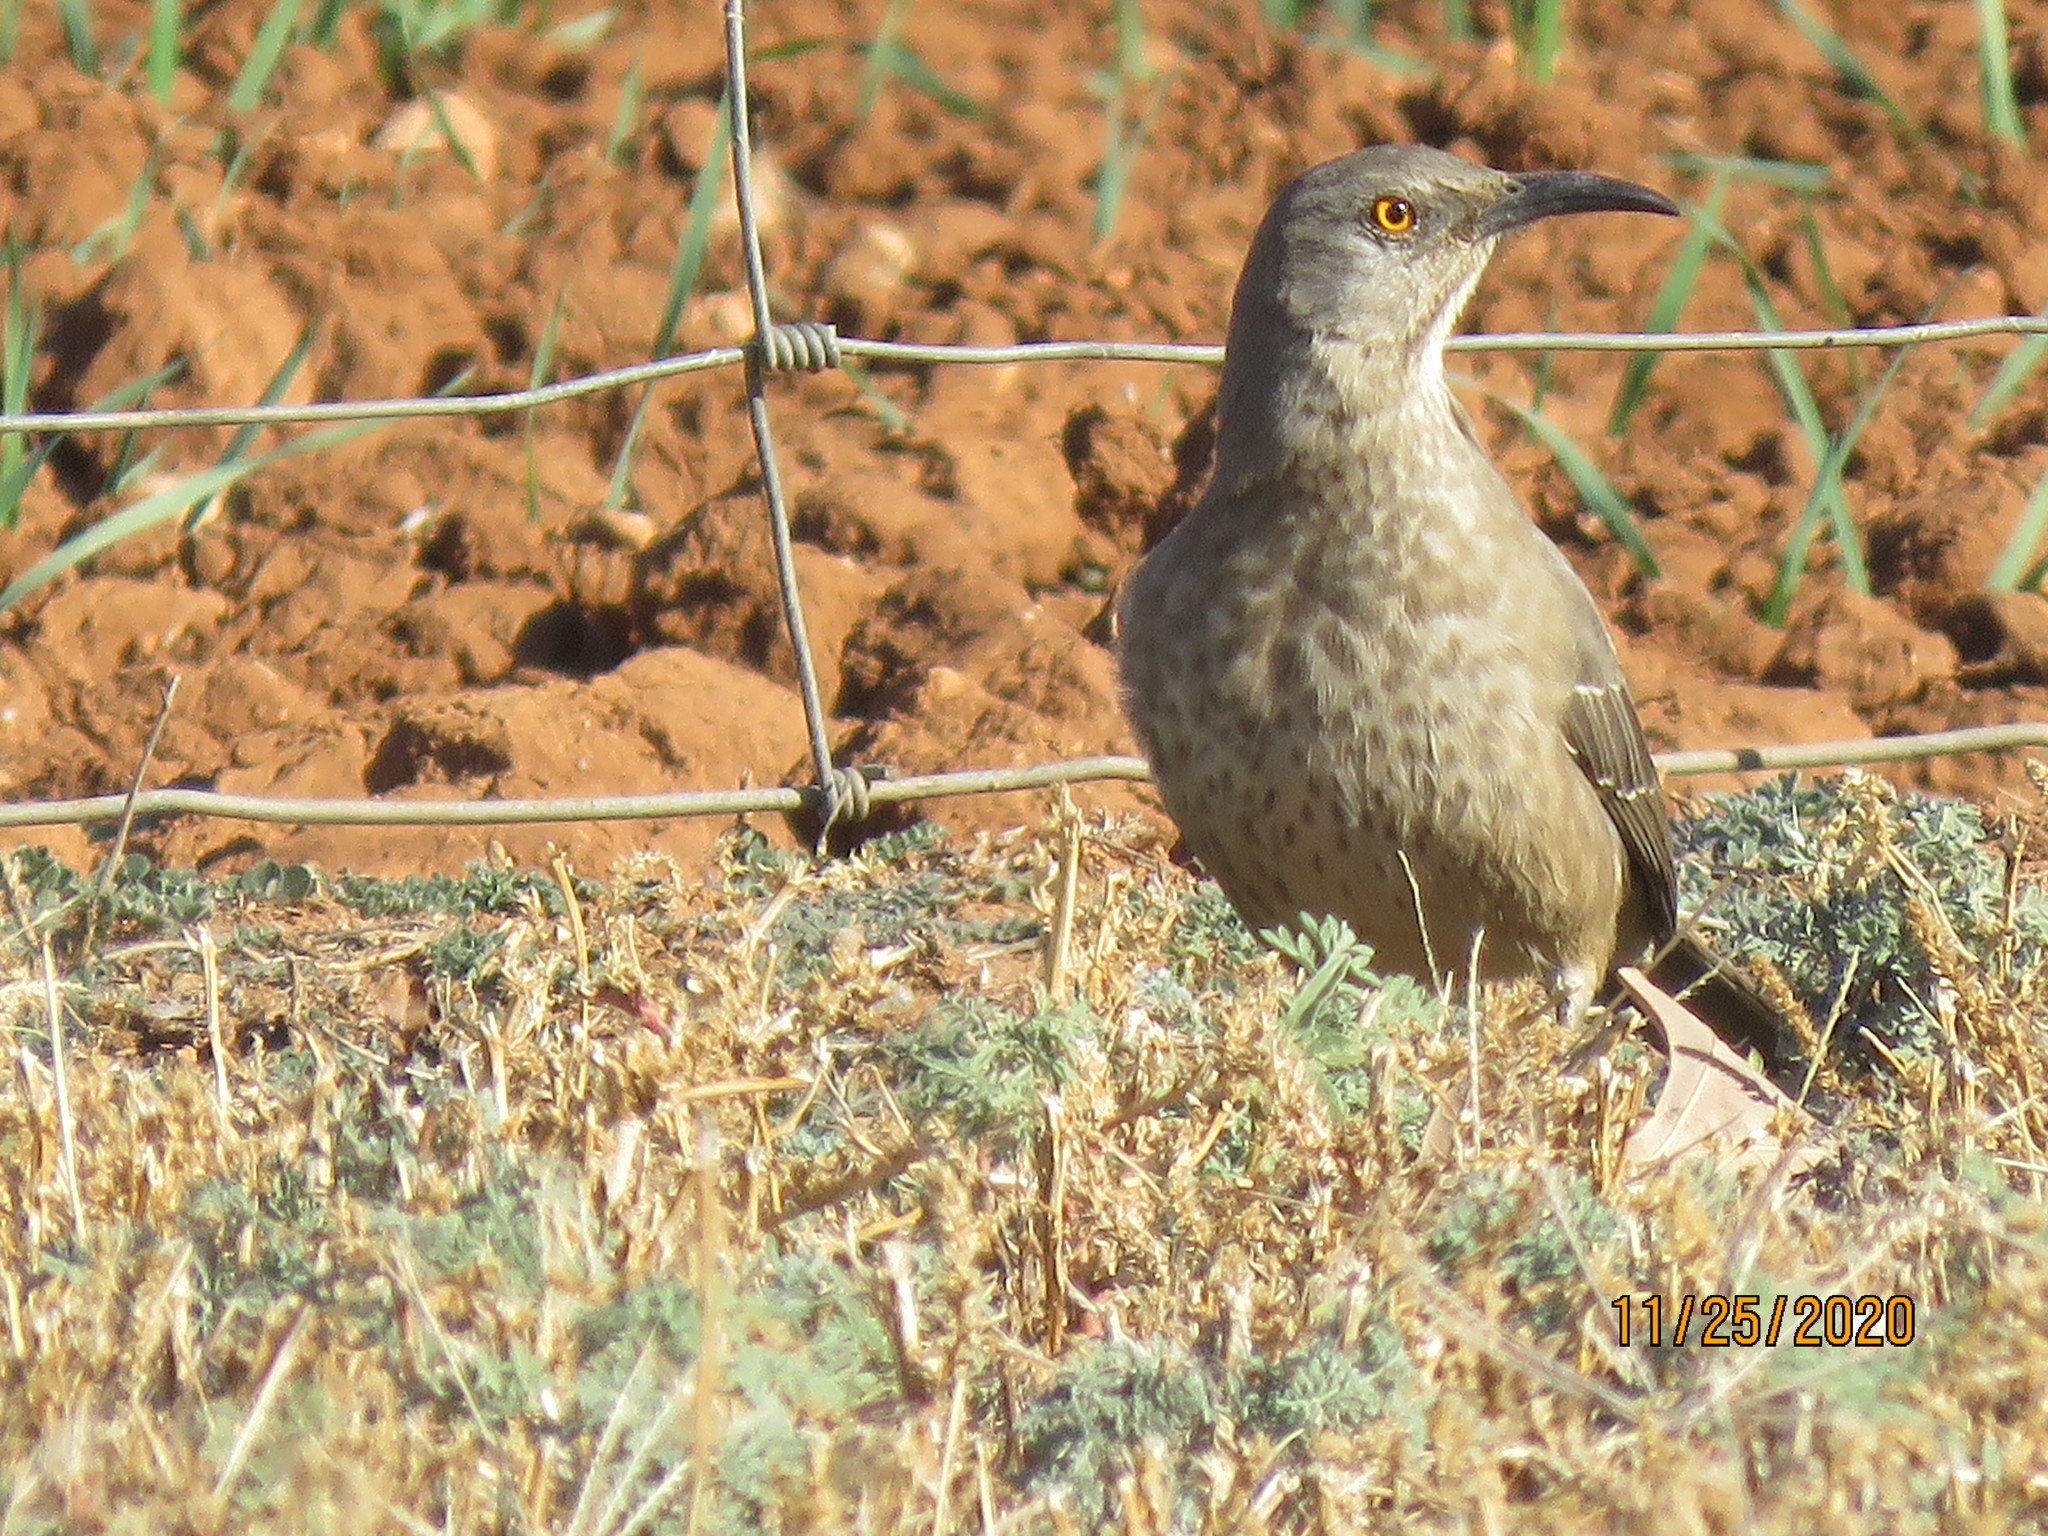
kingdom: Animalia
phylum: Chordata
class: Aves
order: Passeriformes
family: Mimidae
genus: Toxostoma
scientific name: Toxostoma curvirostre
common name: Curve-billed thrasher
